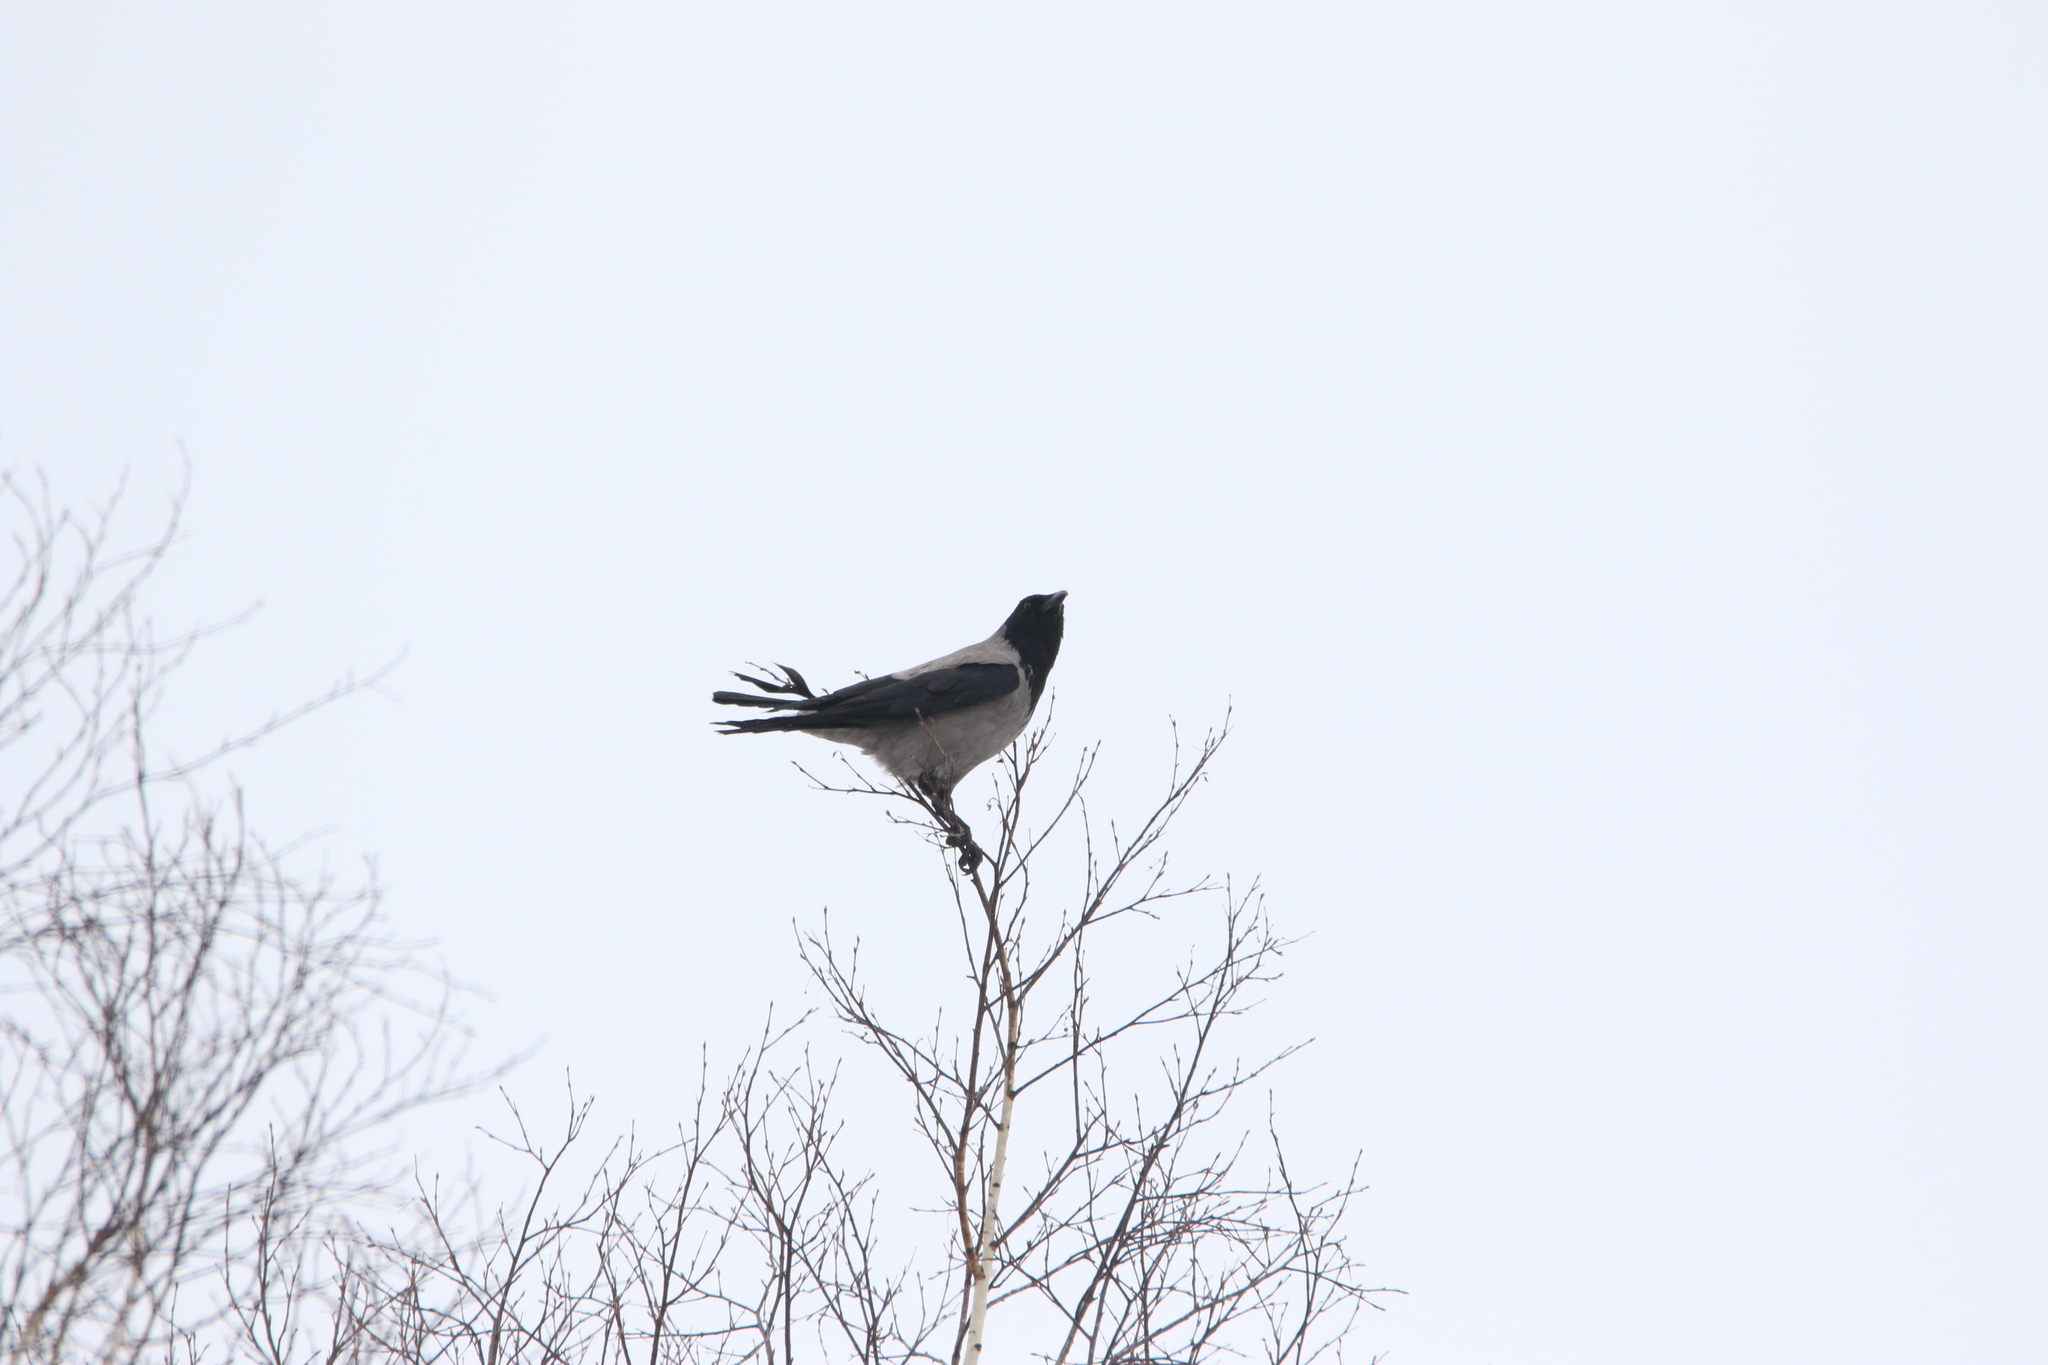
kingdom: Animalia
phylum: Chordata
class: Aves
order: Passeriformes
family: Corvidae
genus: Corvus
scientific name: Corvus cornix
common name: Hooded crow
